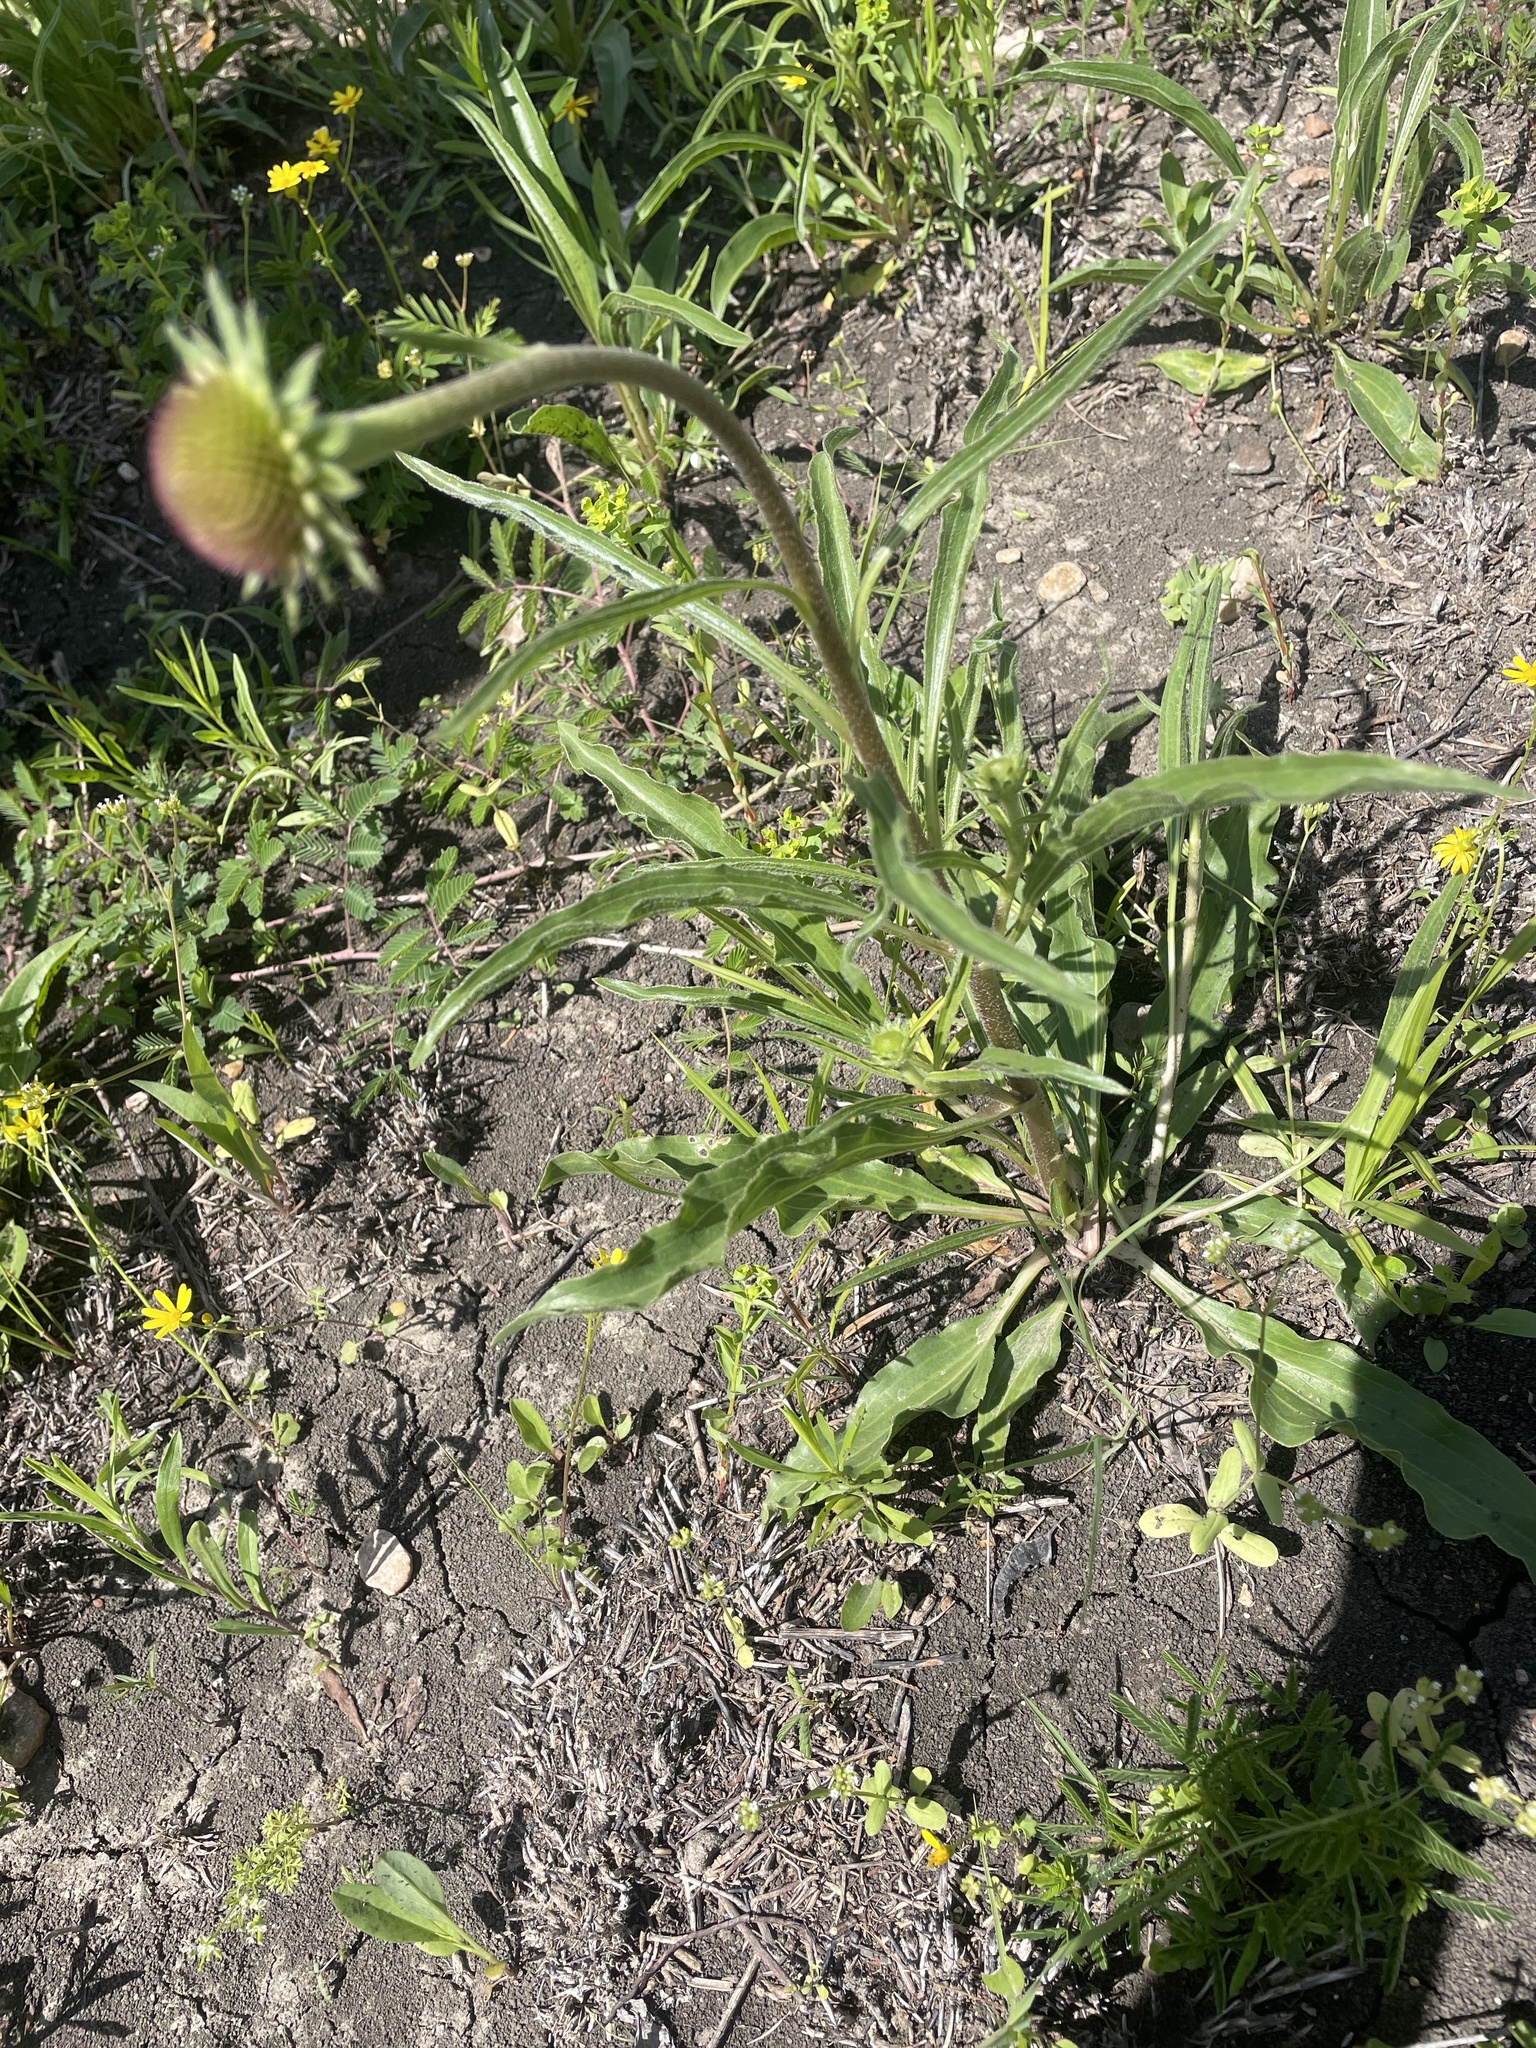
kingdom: Plantae
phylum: Tracheophyta
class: Magnoliopsida
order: Asterales
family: Asteraceae
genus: Echinacea
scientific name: Echinacea atrorubens
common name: Topeka purple-coneflower
